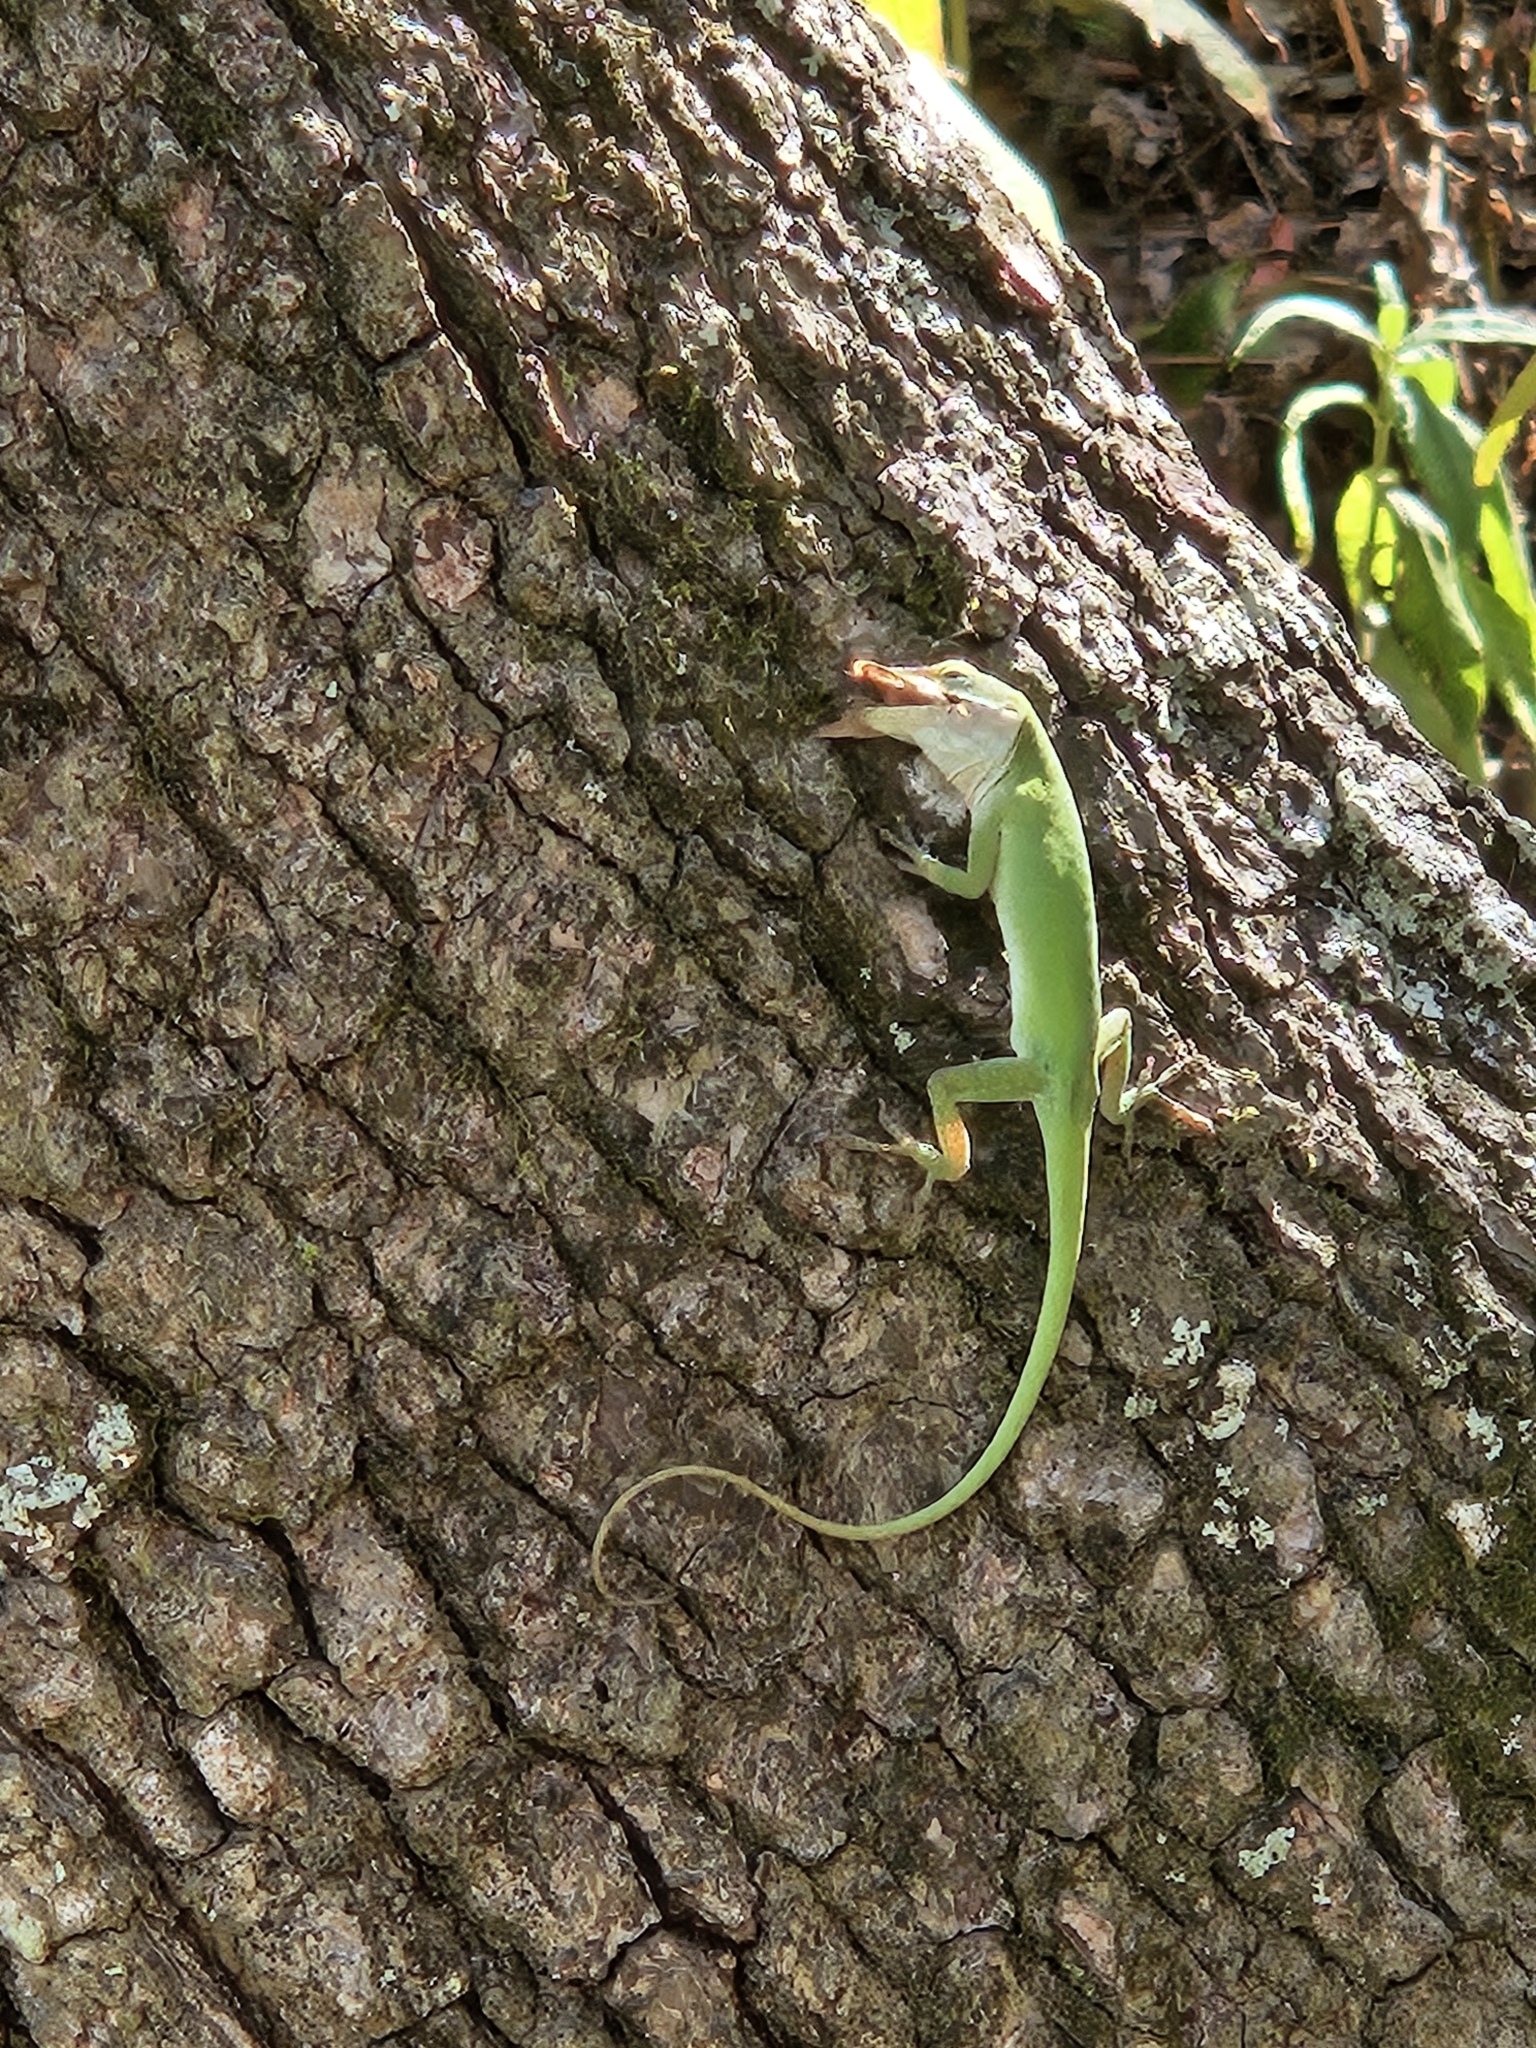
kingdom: Animalia
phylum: Chordata
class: Squamata
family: Dactyloidae
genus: Anolis
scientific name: Anolis carolinensis
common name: Green anole
